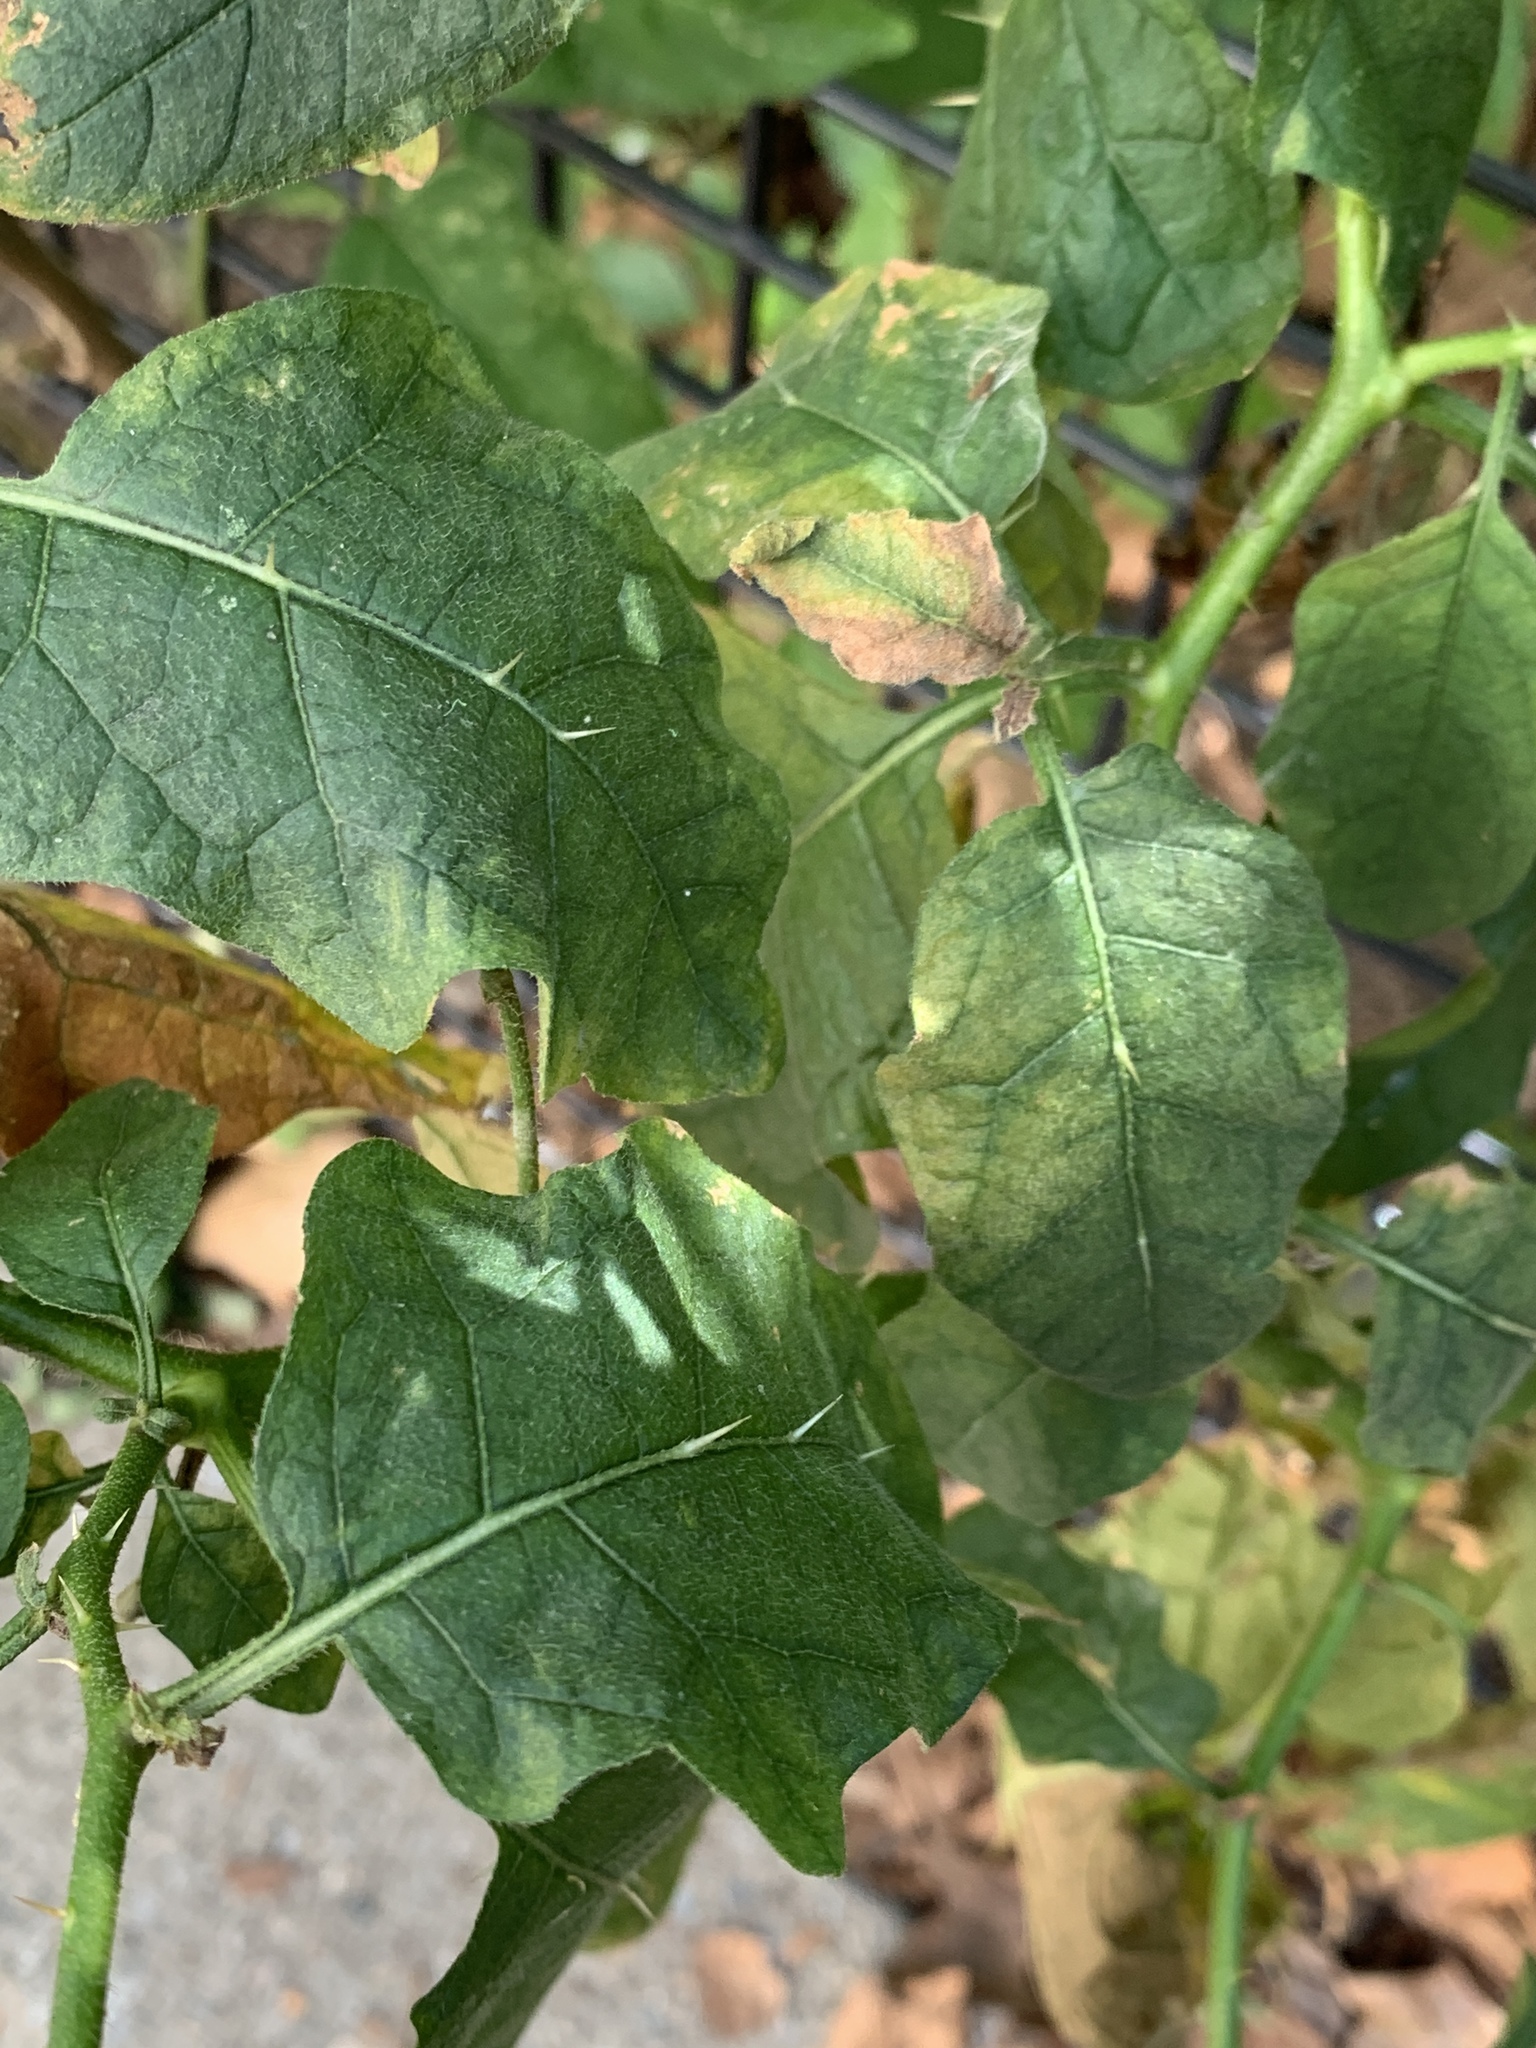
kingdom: Plantae
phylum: Tracheophyta
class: Magnoliopsida
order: Solanales
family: Solanaceae
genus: Solanum
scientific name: Solanum carolinense
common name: Horse-nettle
